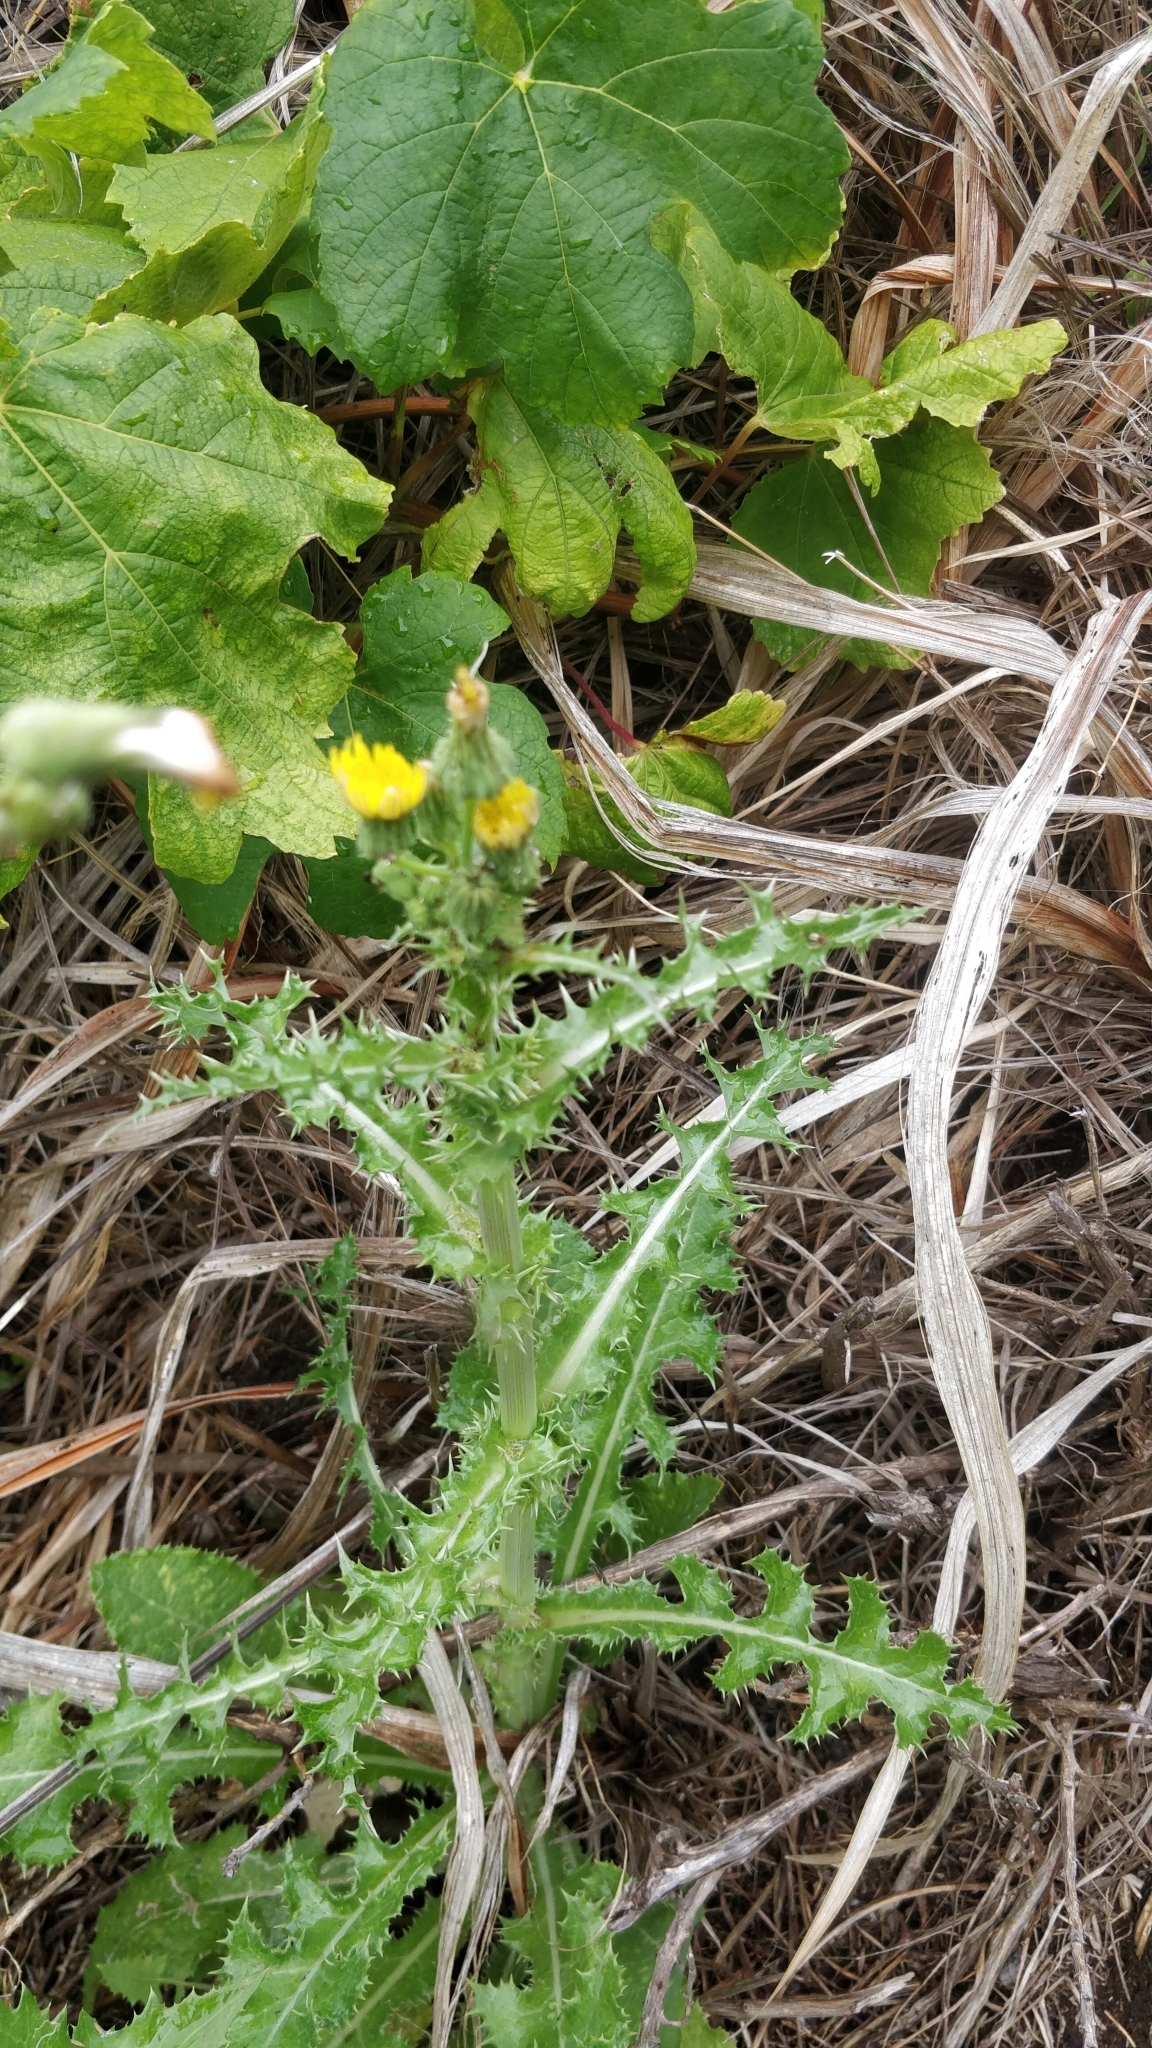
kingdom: Plantae
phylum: Tracheophyta
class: Magnoliopsida
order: Asterales
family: Asteraceae
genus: Sonchus
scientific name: Sonchus asper
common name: Prickly sow-thistle
